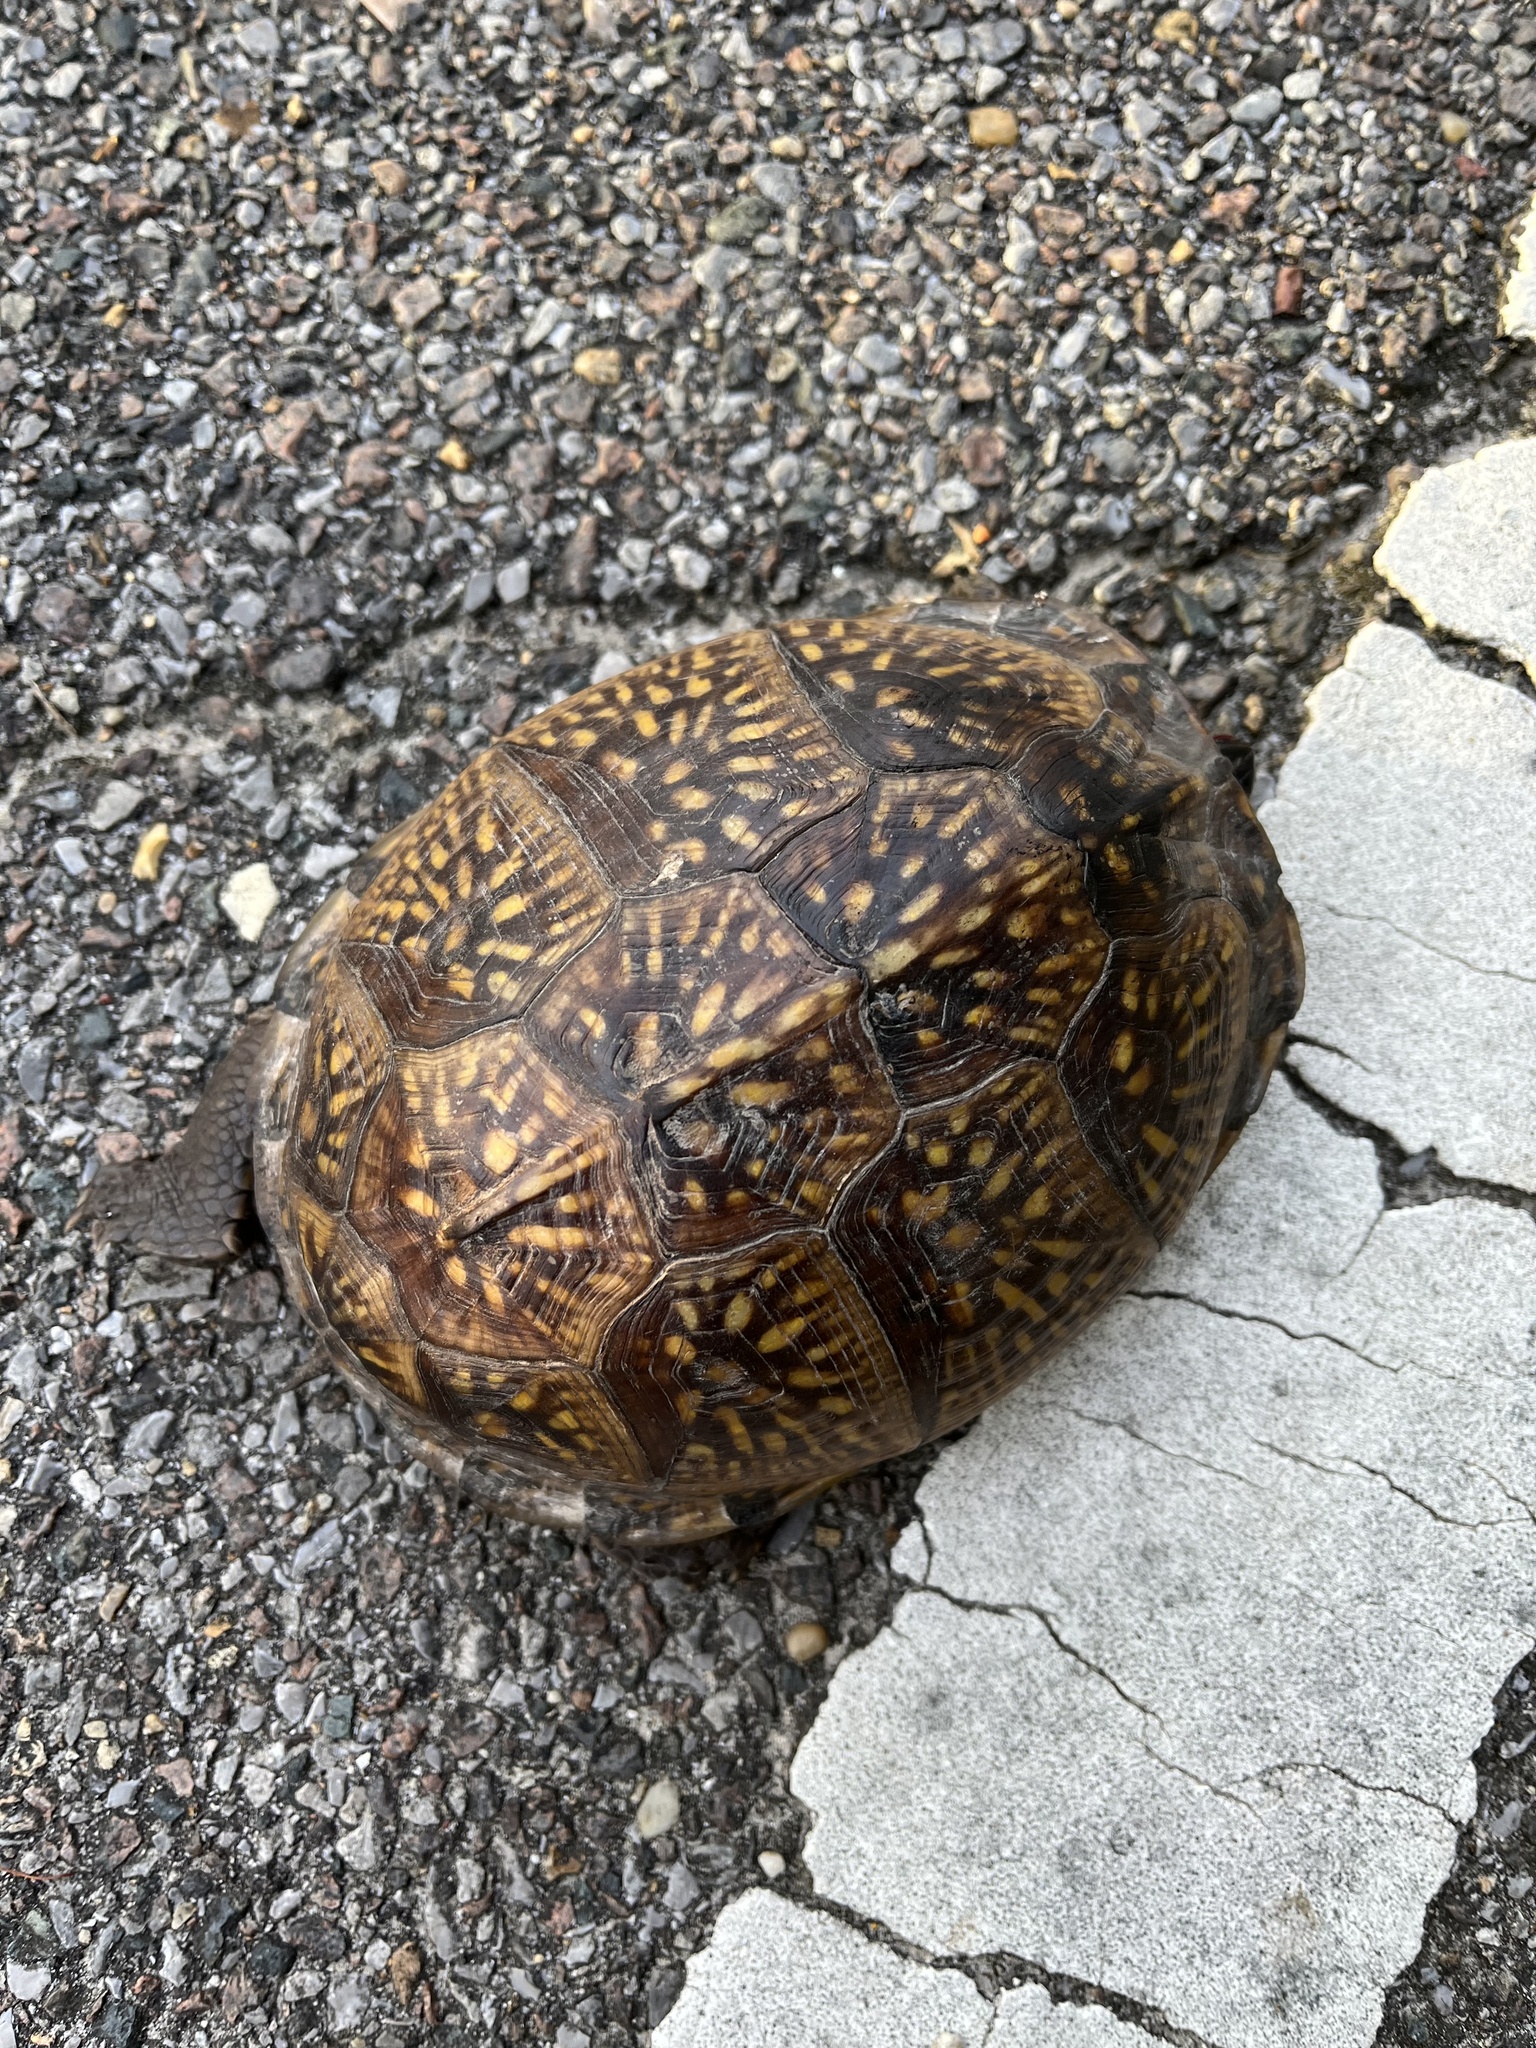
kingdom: Animalia
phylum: Chordata
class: Testudines
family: Emydidae
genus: Terrapene
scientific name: Terrapene carolina
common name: Common box turtle
